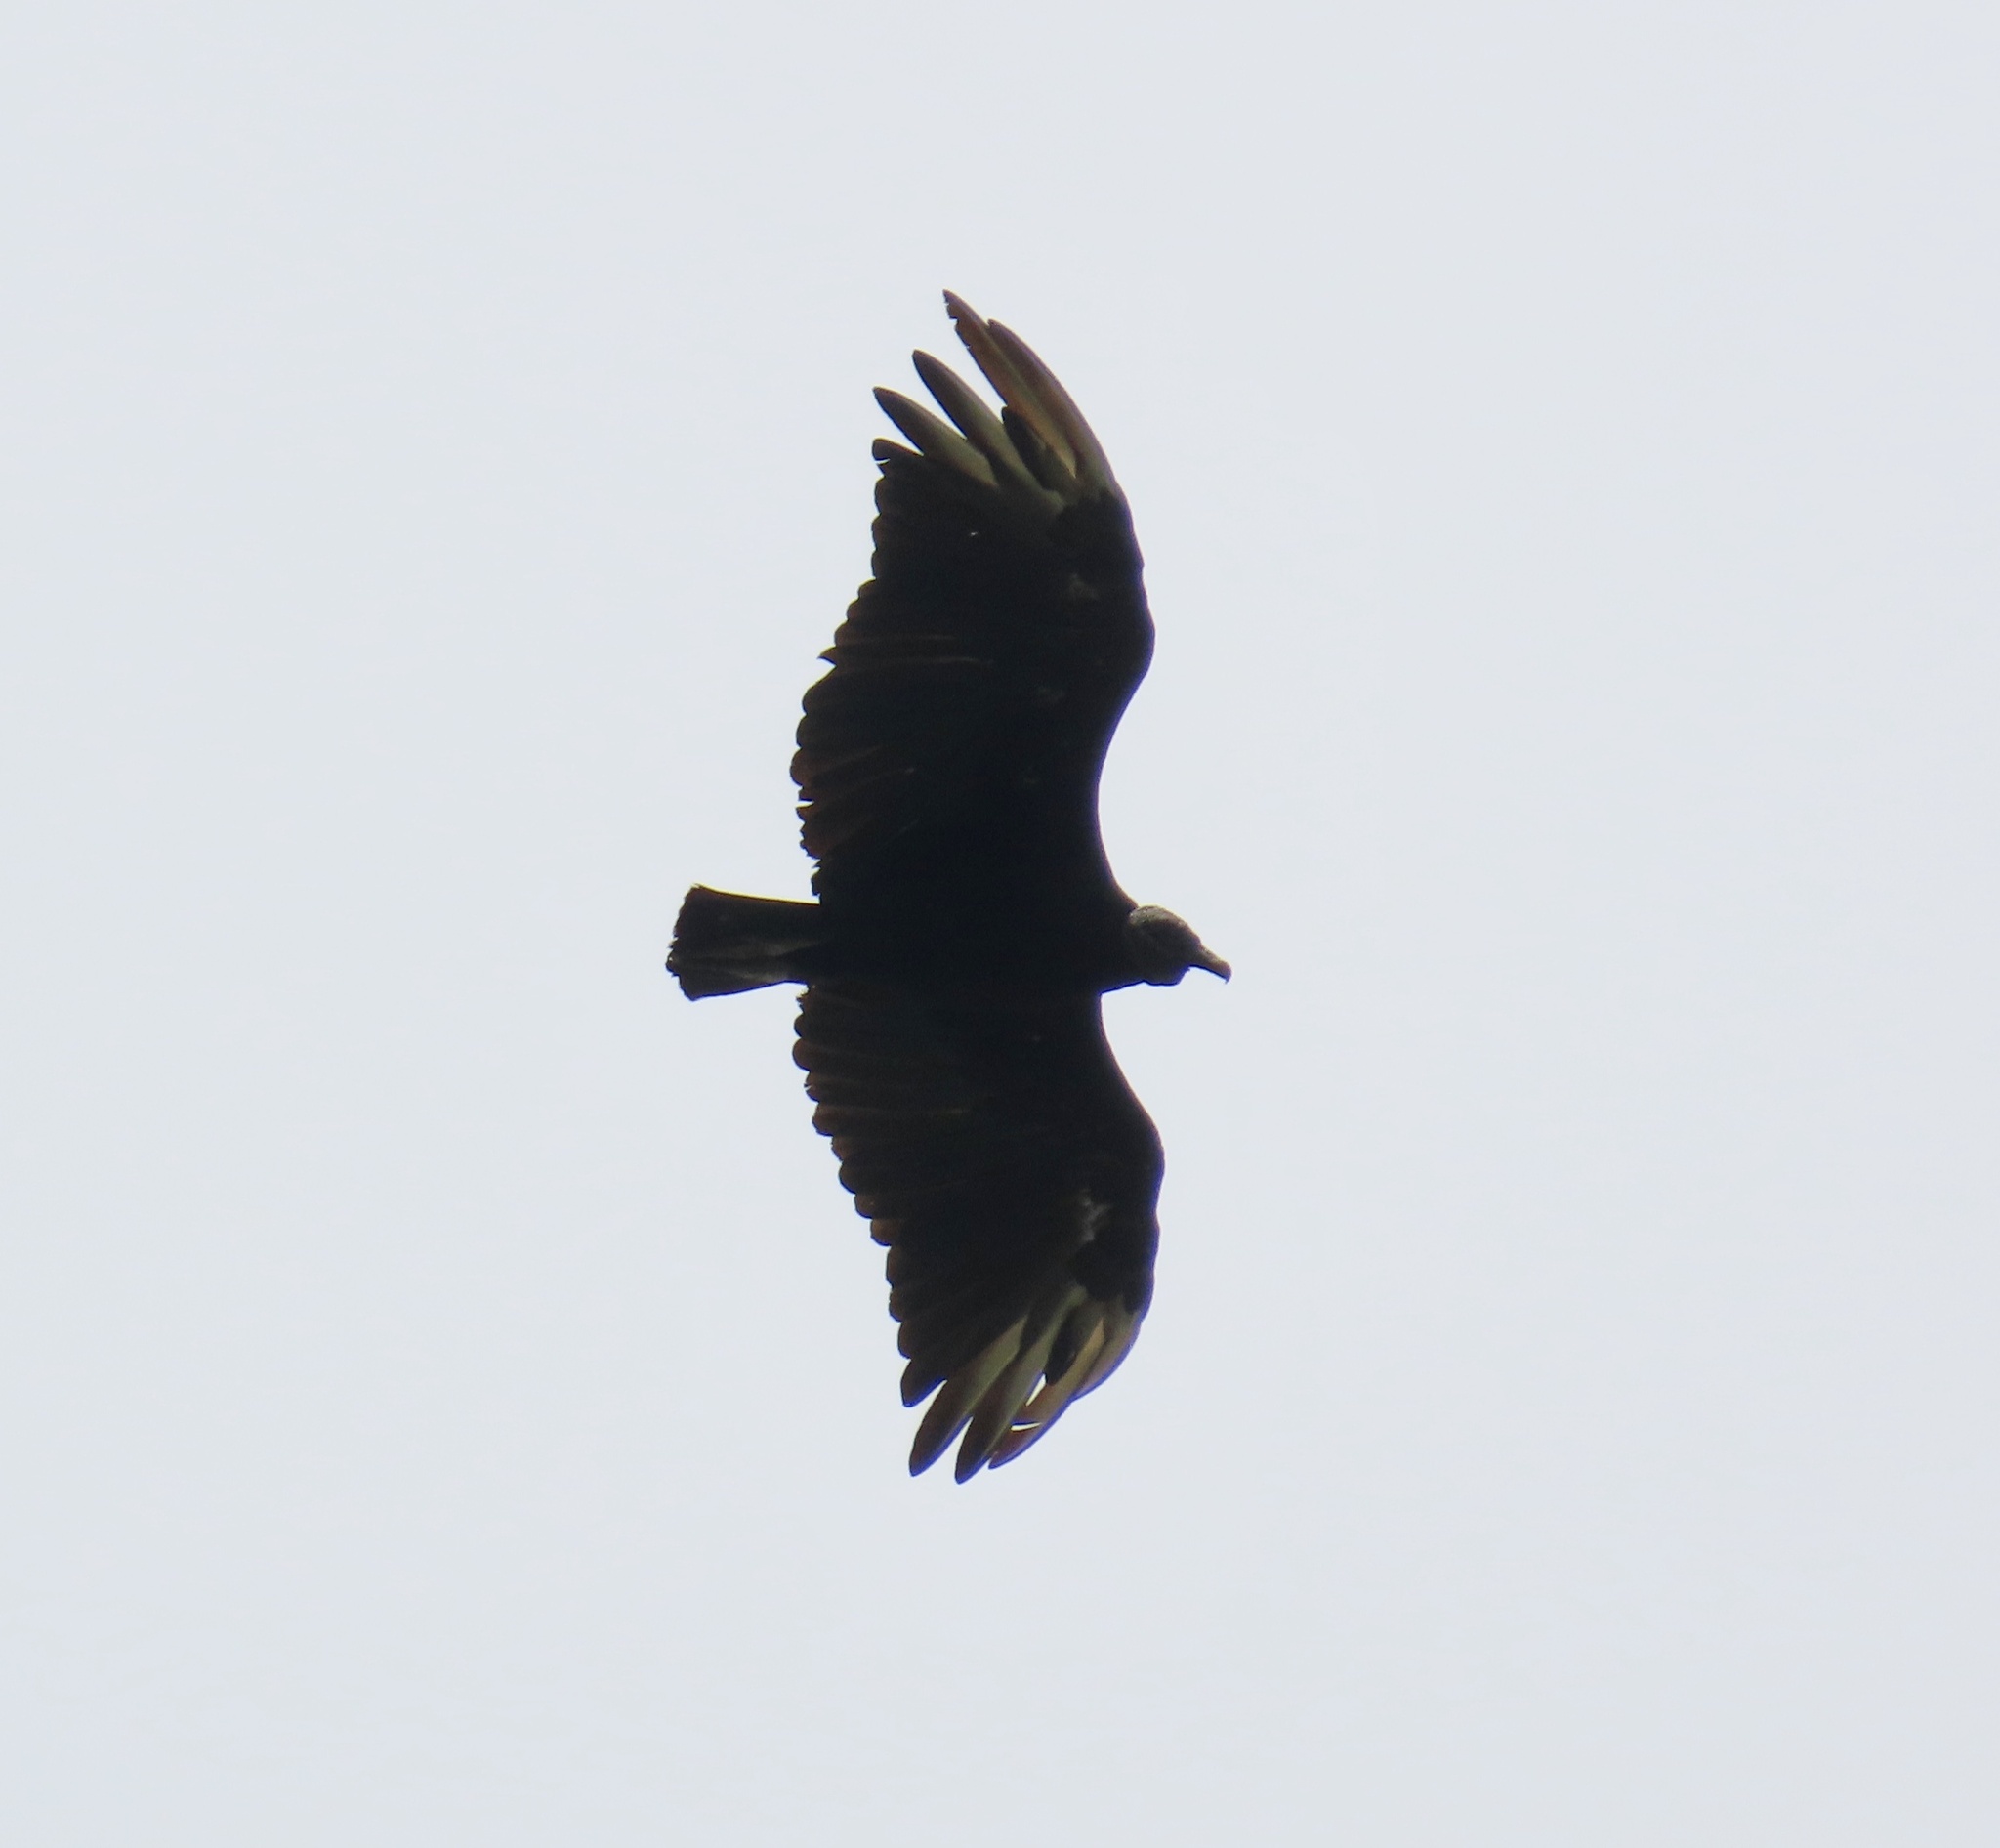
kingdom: Animalia
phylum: Chordata
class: Aves
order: Accipitriformes
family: Cathartidae
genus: Coragyps
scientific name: Coragyps atratus
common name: Black vulture
